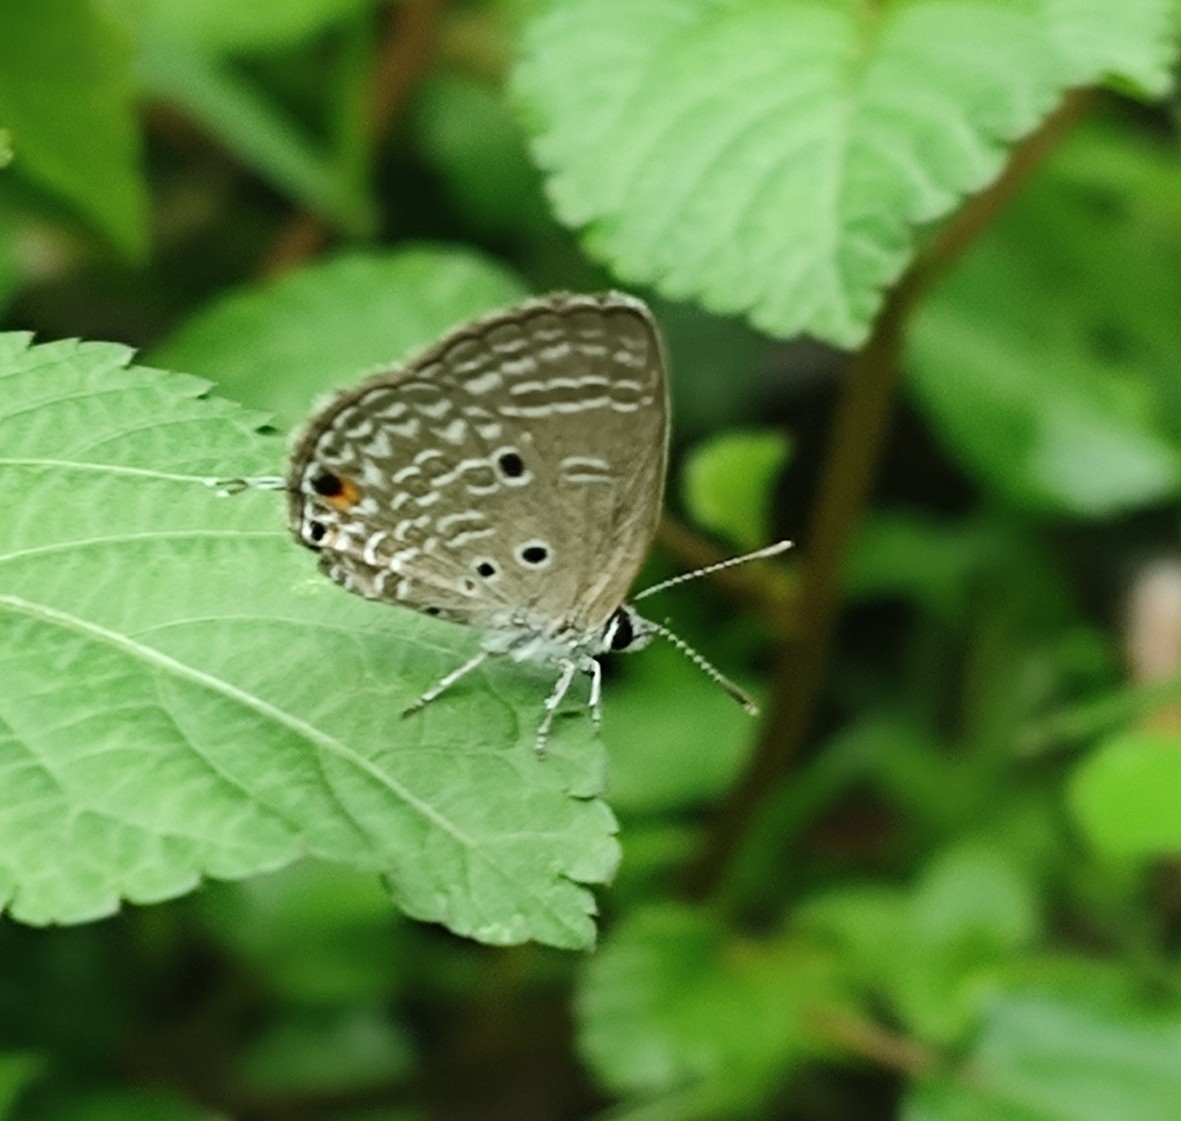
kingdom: Animalia
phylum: Arthropoda
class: Insecta
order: Lepidoptera
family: Lycaenidae
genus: Luthrodes
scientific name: Luthrodes pandava
